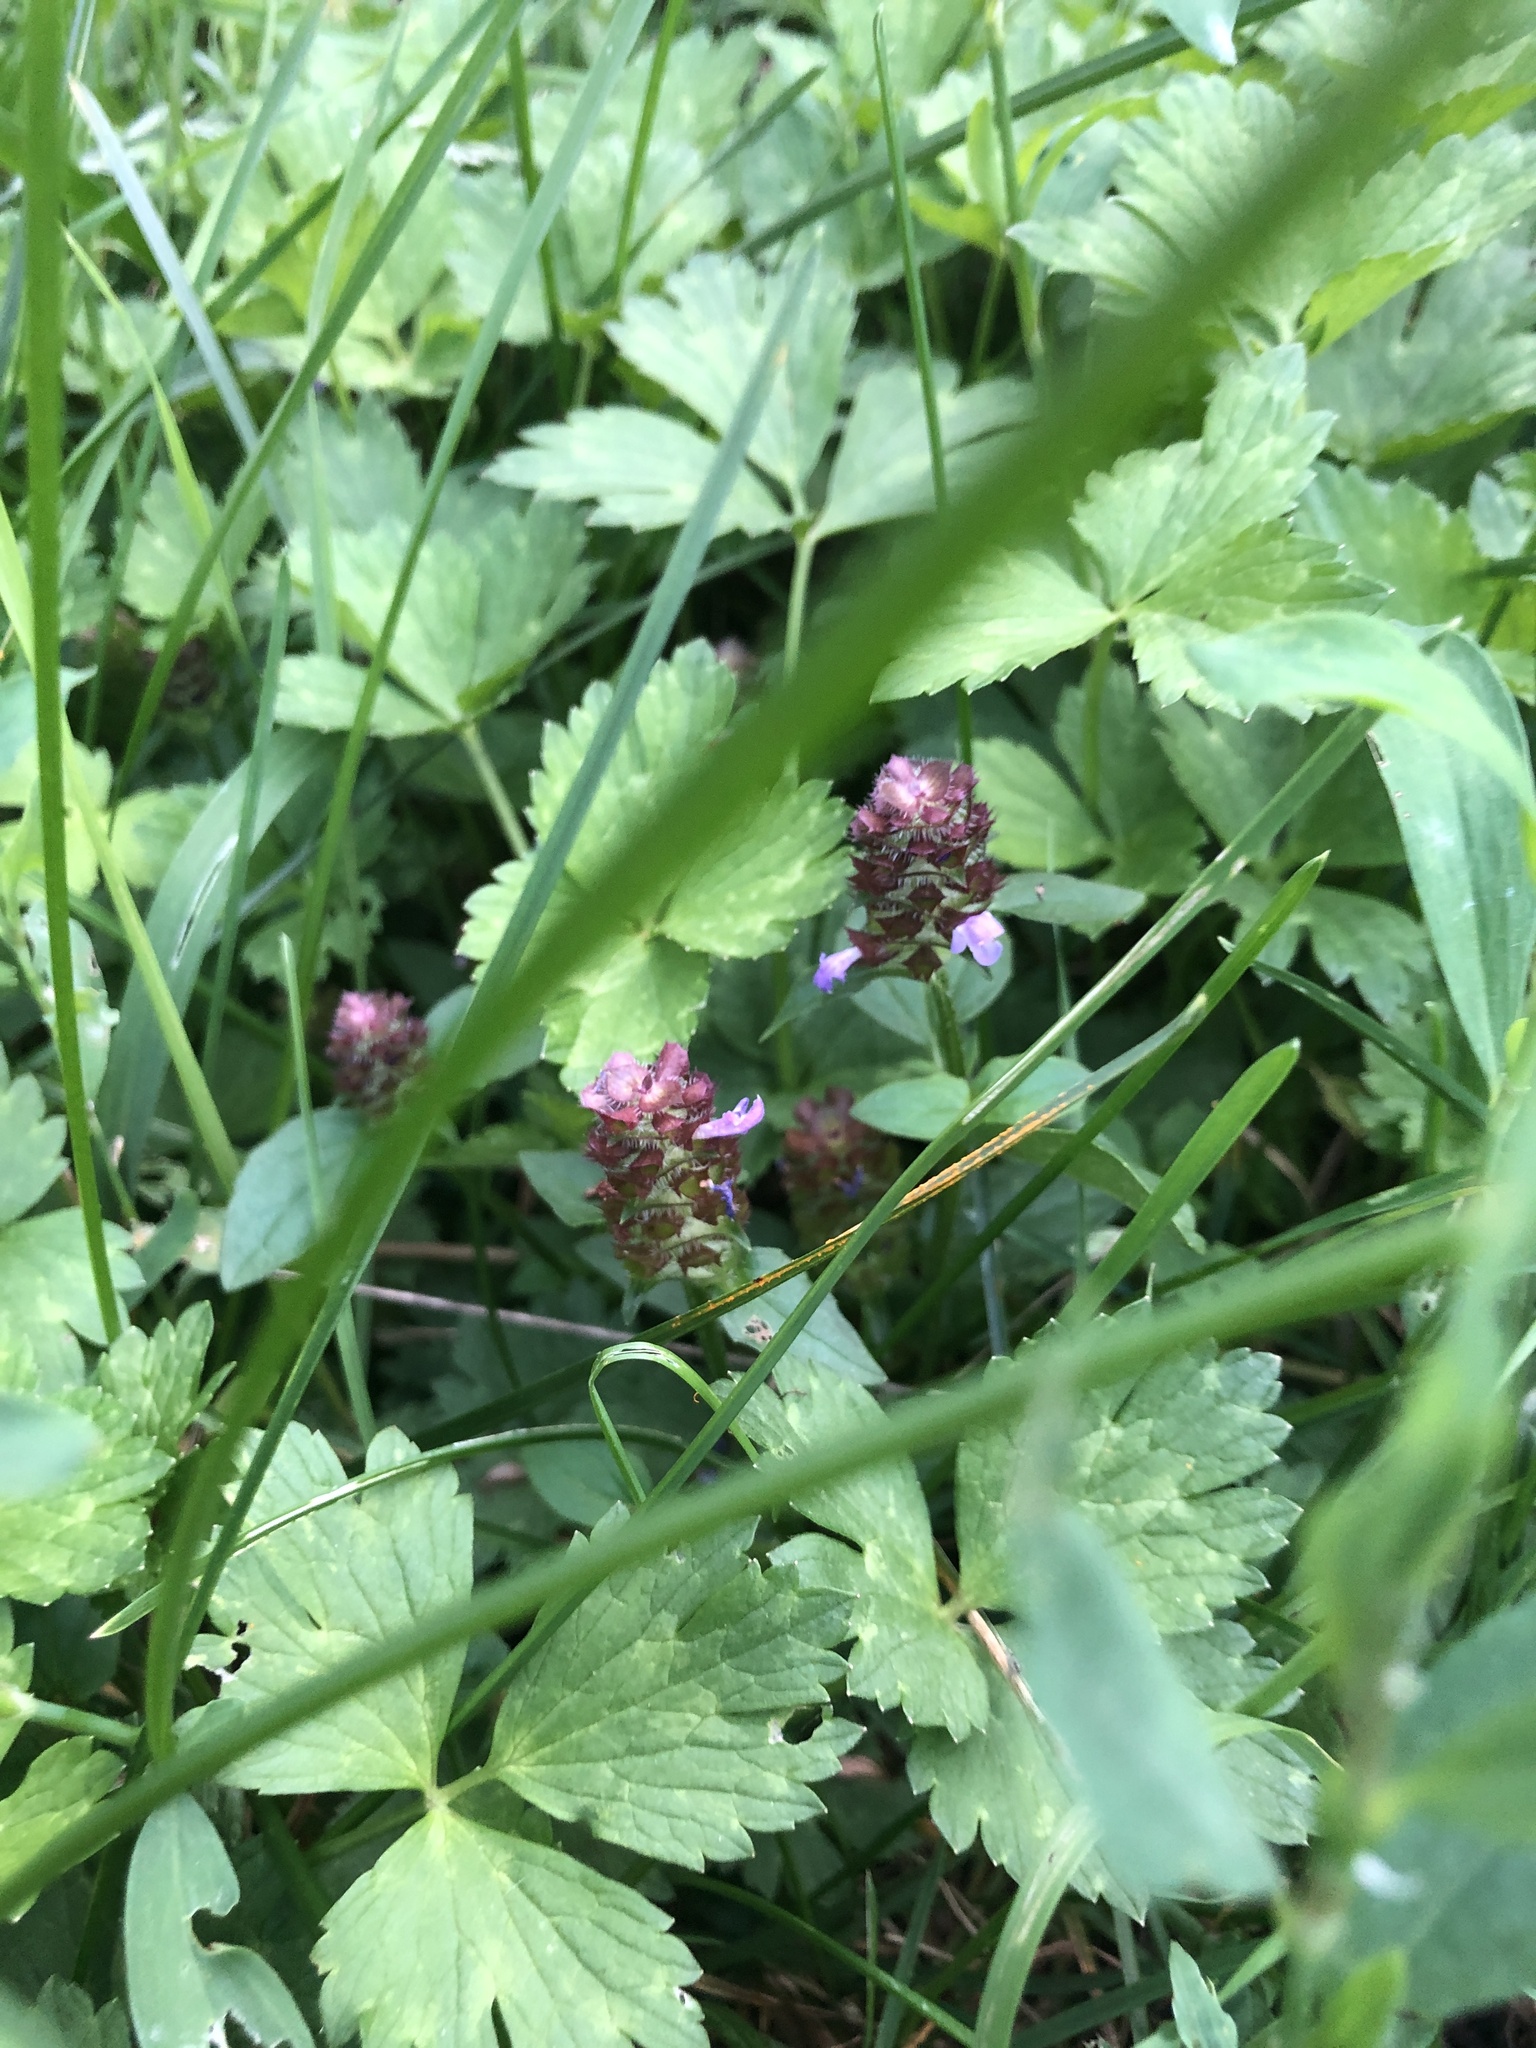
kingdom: Plantae
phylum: Tracheophyta
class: Magnoliopsida
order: Lamiales
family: Lamiaceae
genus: Prunella
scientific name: Prunella vulgaris
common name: Heal-all
